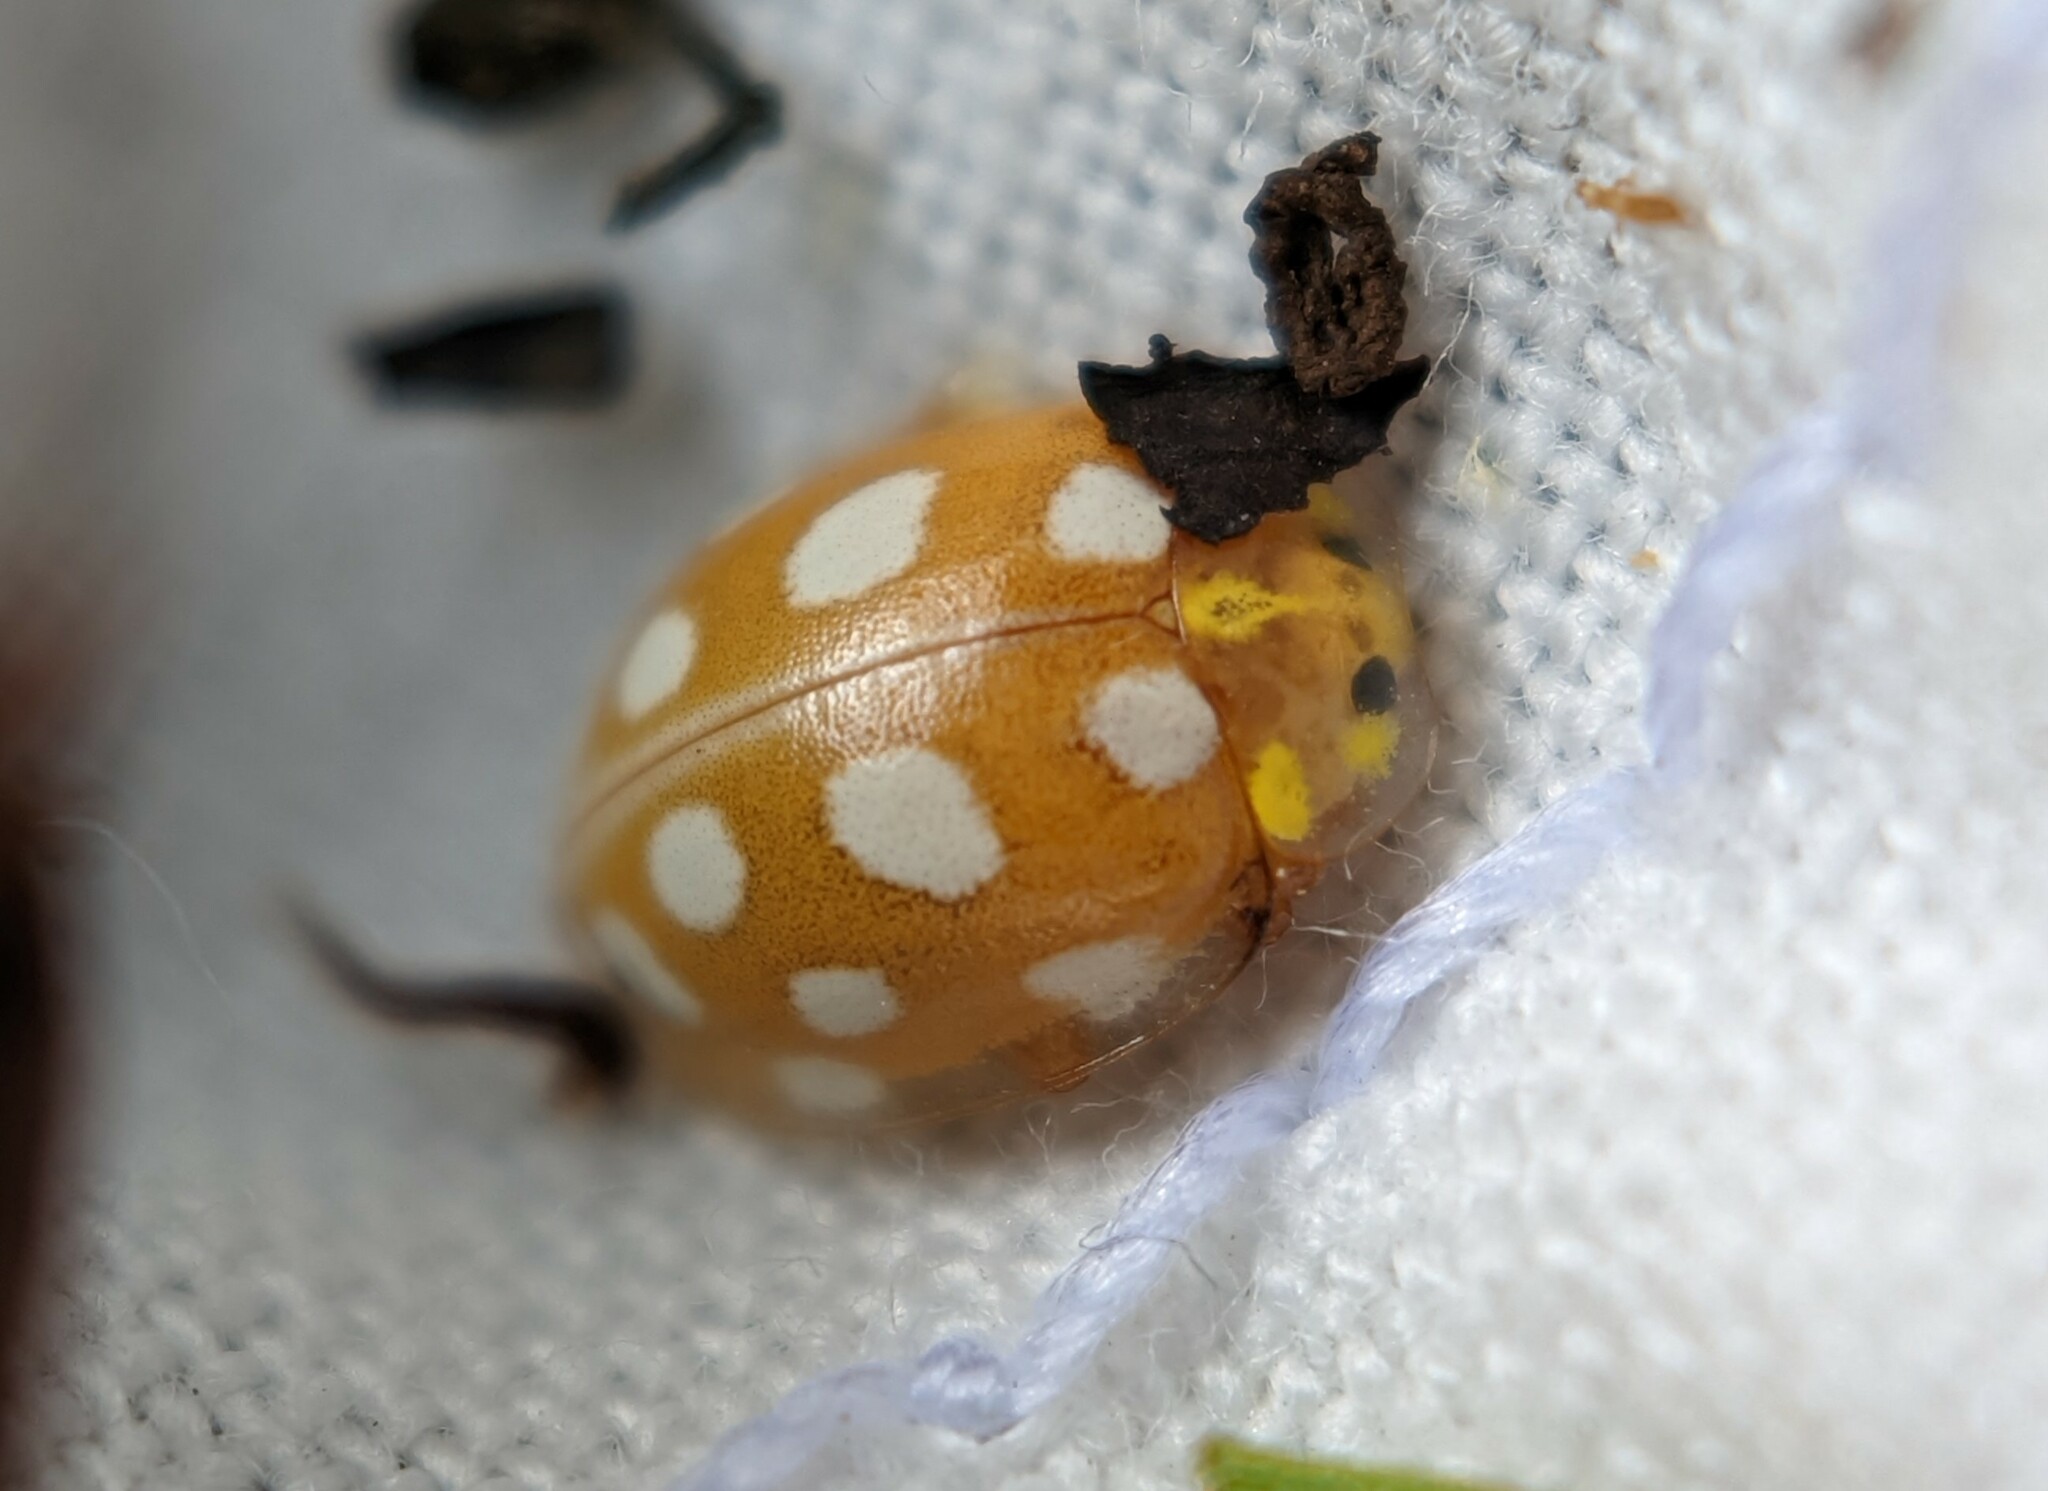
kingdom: Animalia
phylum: Arthropoda
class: Insecta
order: Coleoptera
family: Coccinellidae
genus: Halyzia
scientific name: Halyzia sedecimguttata
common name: Orange ladybird
